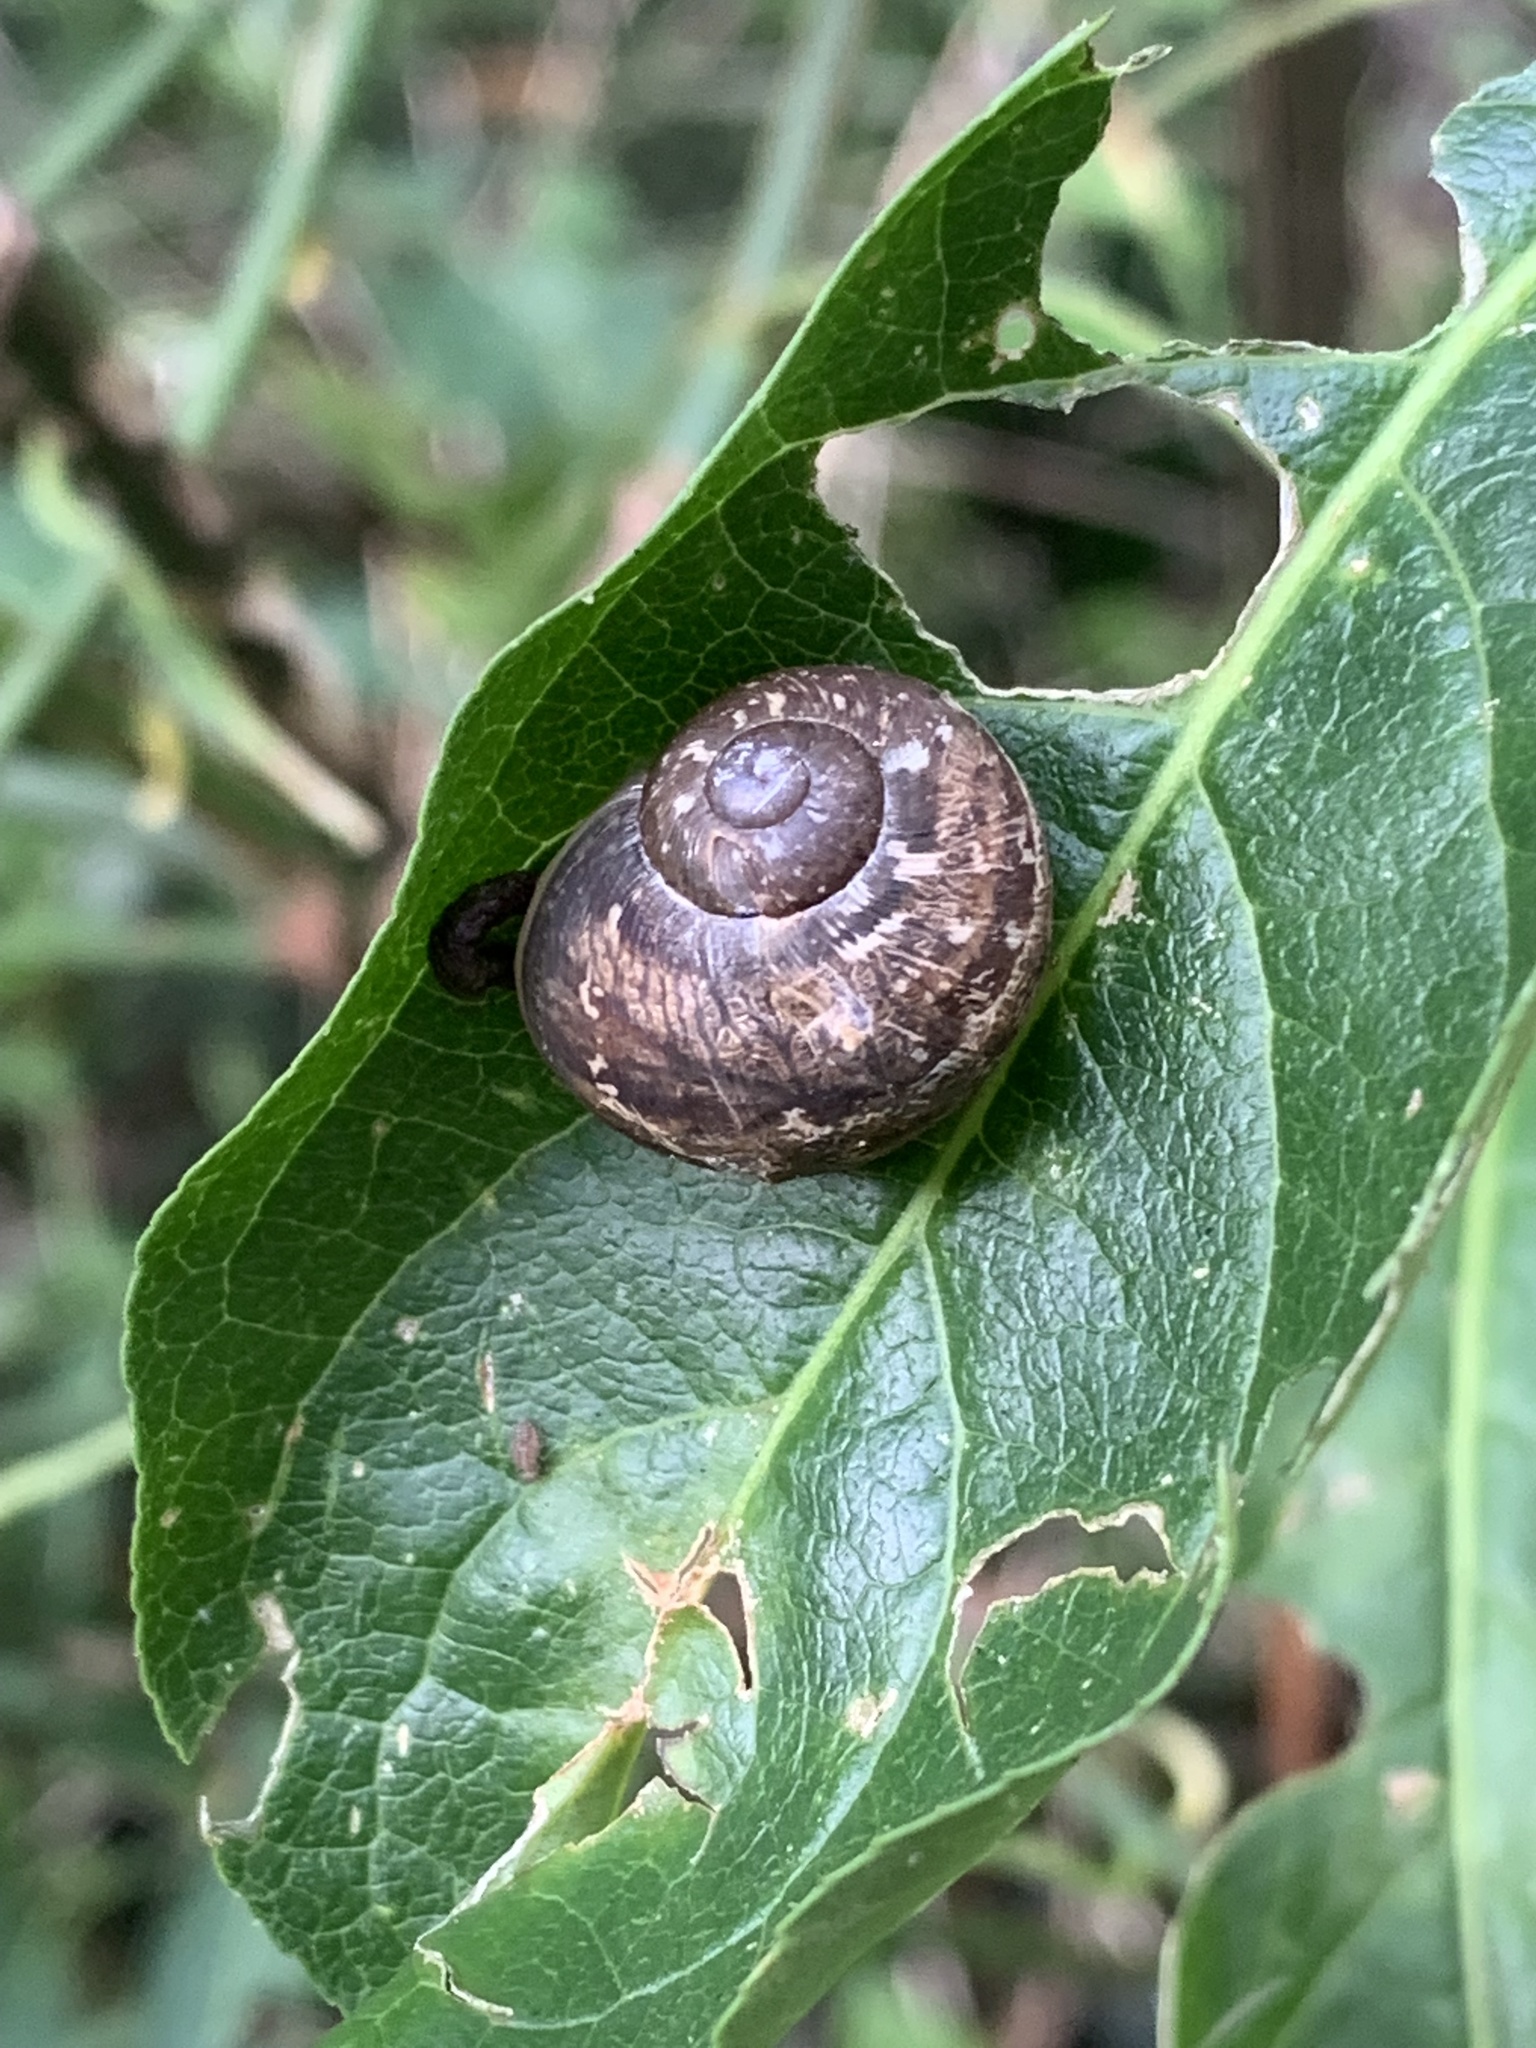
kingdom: Animalia
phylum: Mollusca
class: Gastropoda
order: Stylommatophora
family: Helicidae
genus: Cornu
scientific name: Cornu aspersum
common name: Brown garden snail
